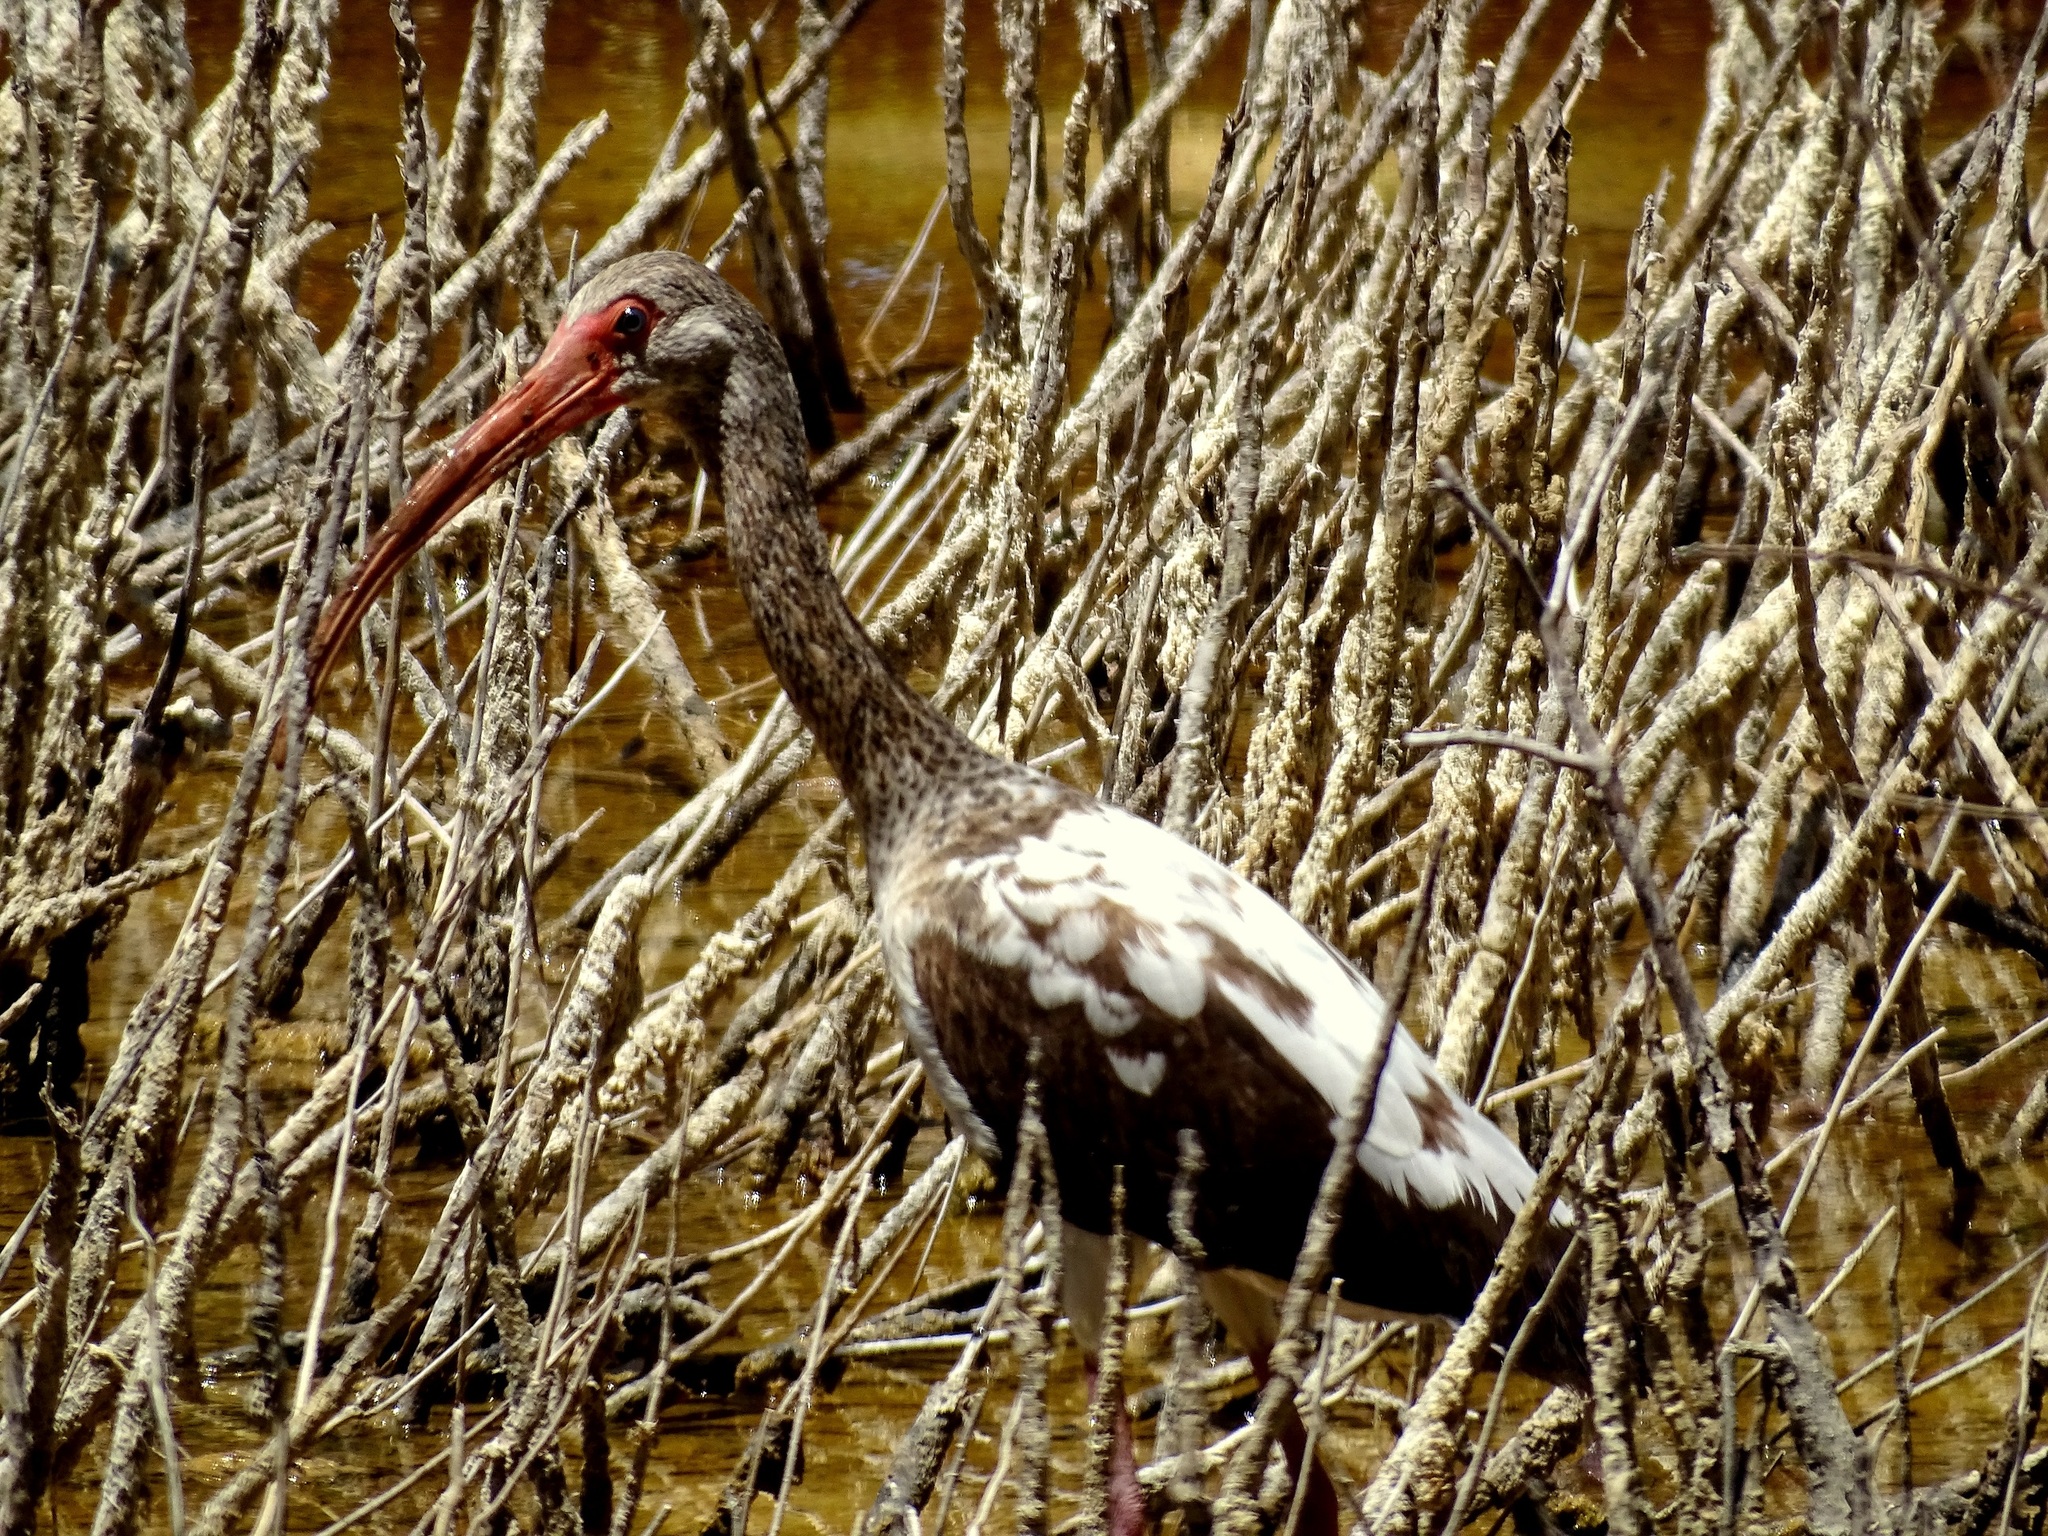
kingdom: Animalia
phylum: Chordata
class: Aves
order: Pelecaniformes
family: Threskiornithidae
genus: Eudocimus
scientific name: Eudocimus albus
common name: White ibis
